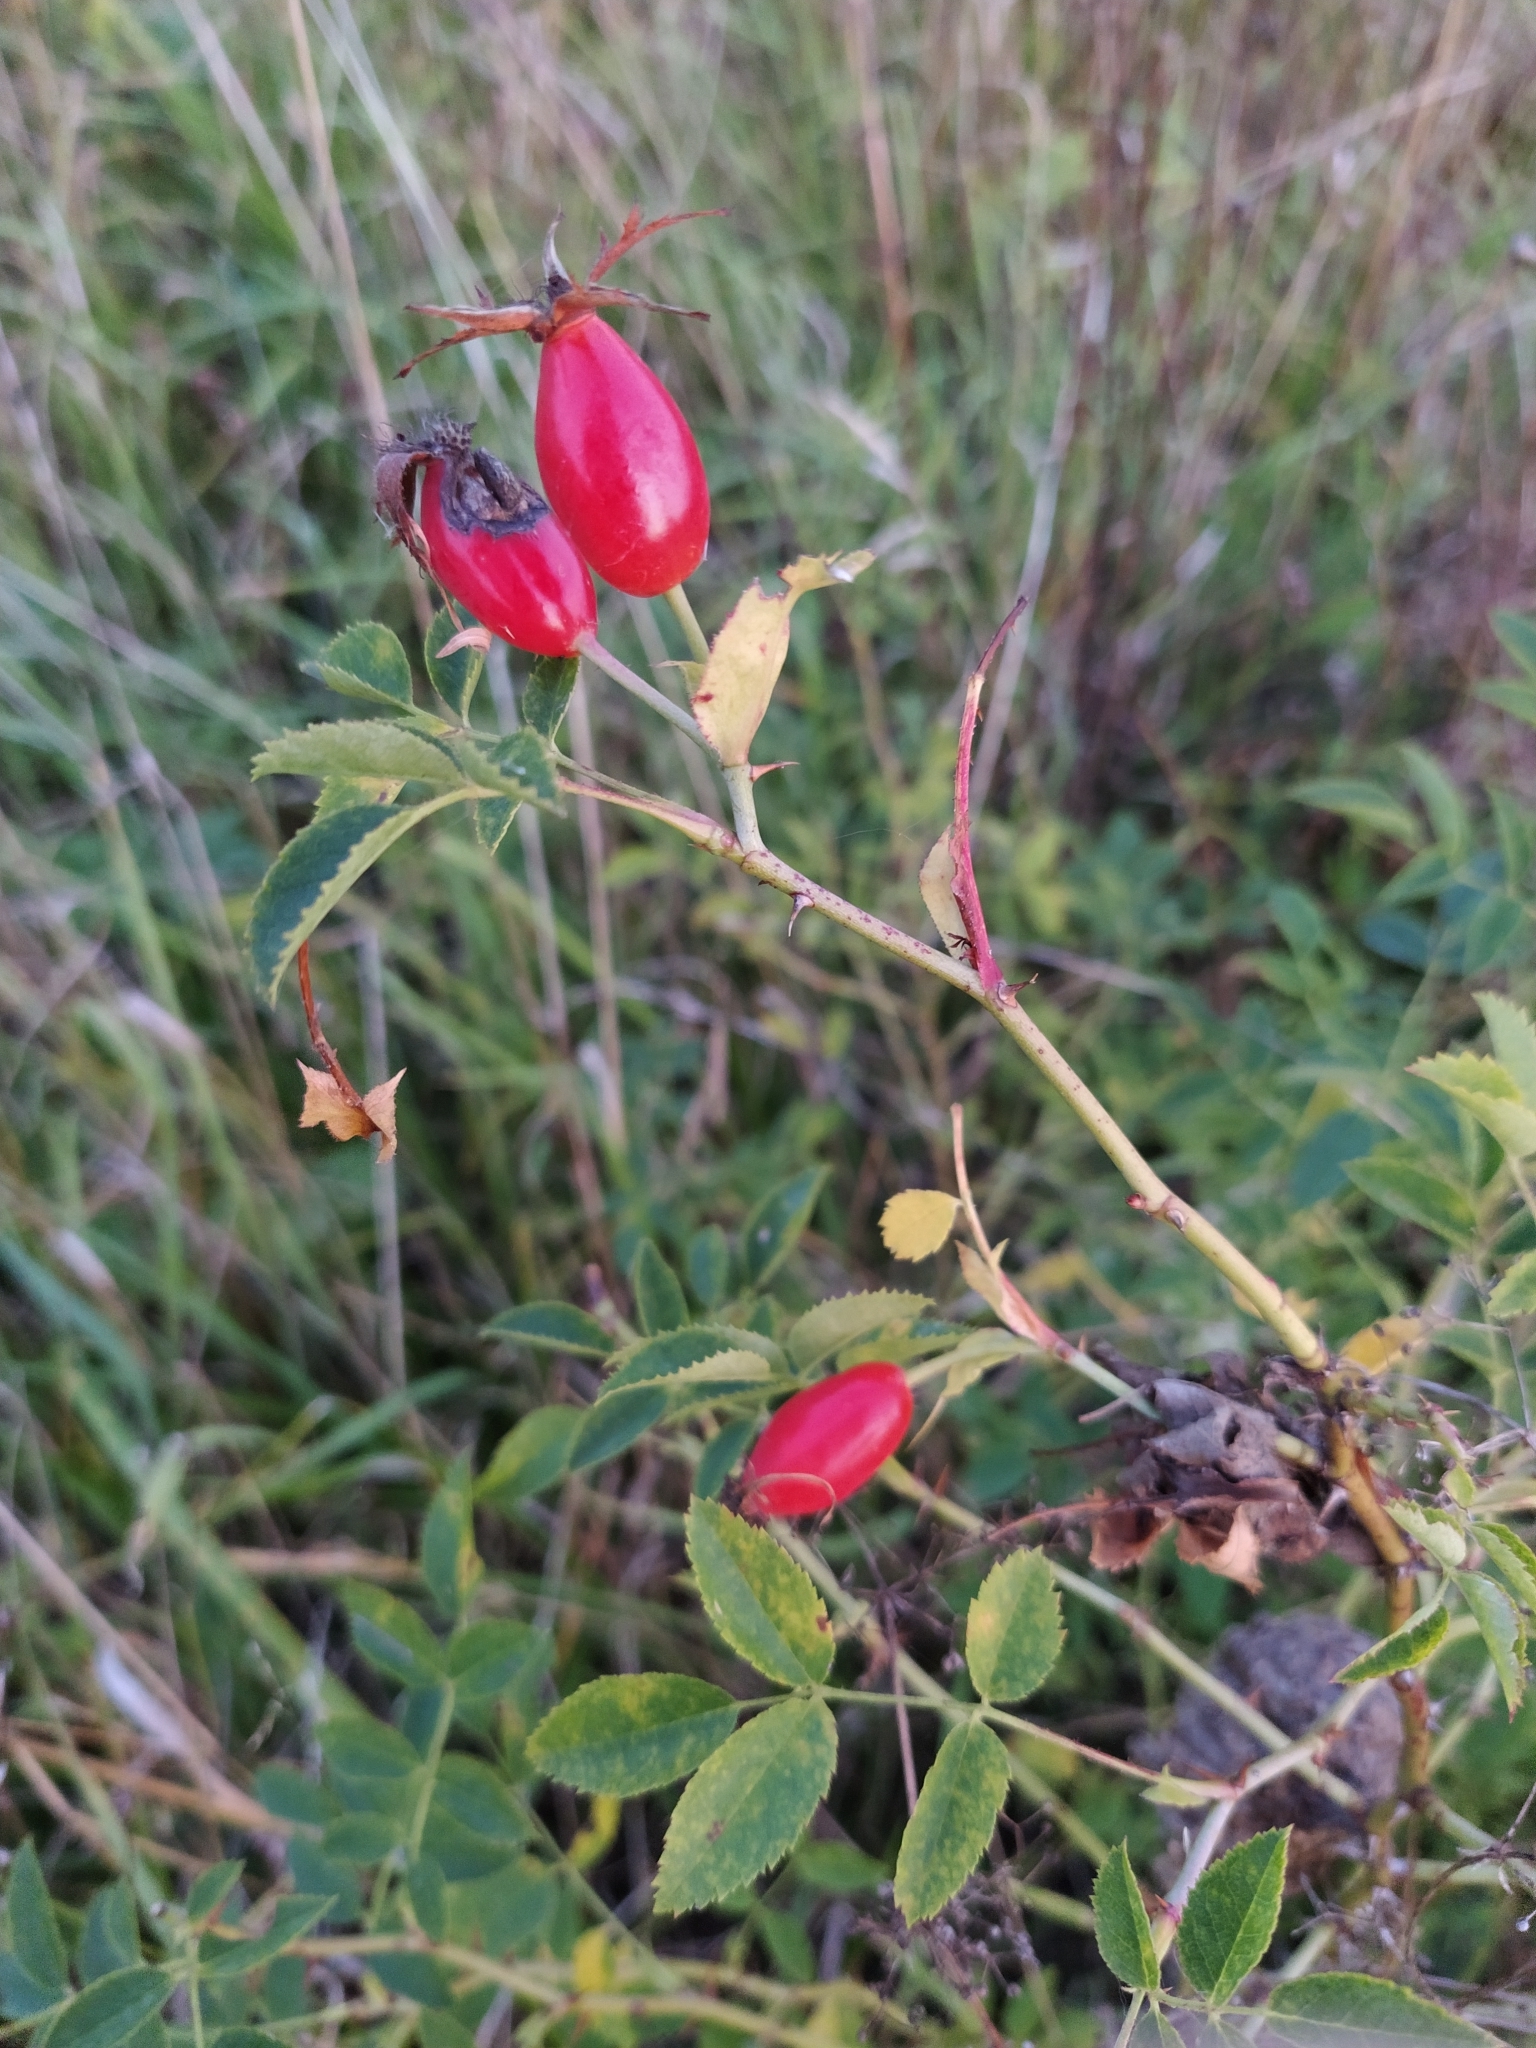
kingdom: Plantae
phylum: Tracheophyta
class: Magnoliopsida
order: Rosales
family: Rosaceae
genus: Rosa
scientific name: Rosa
